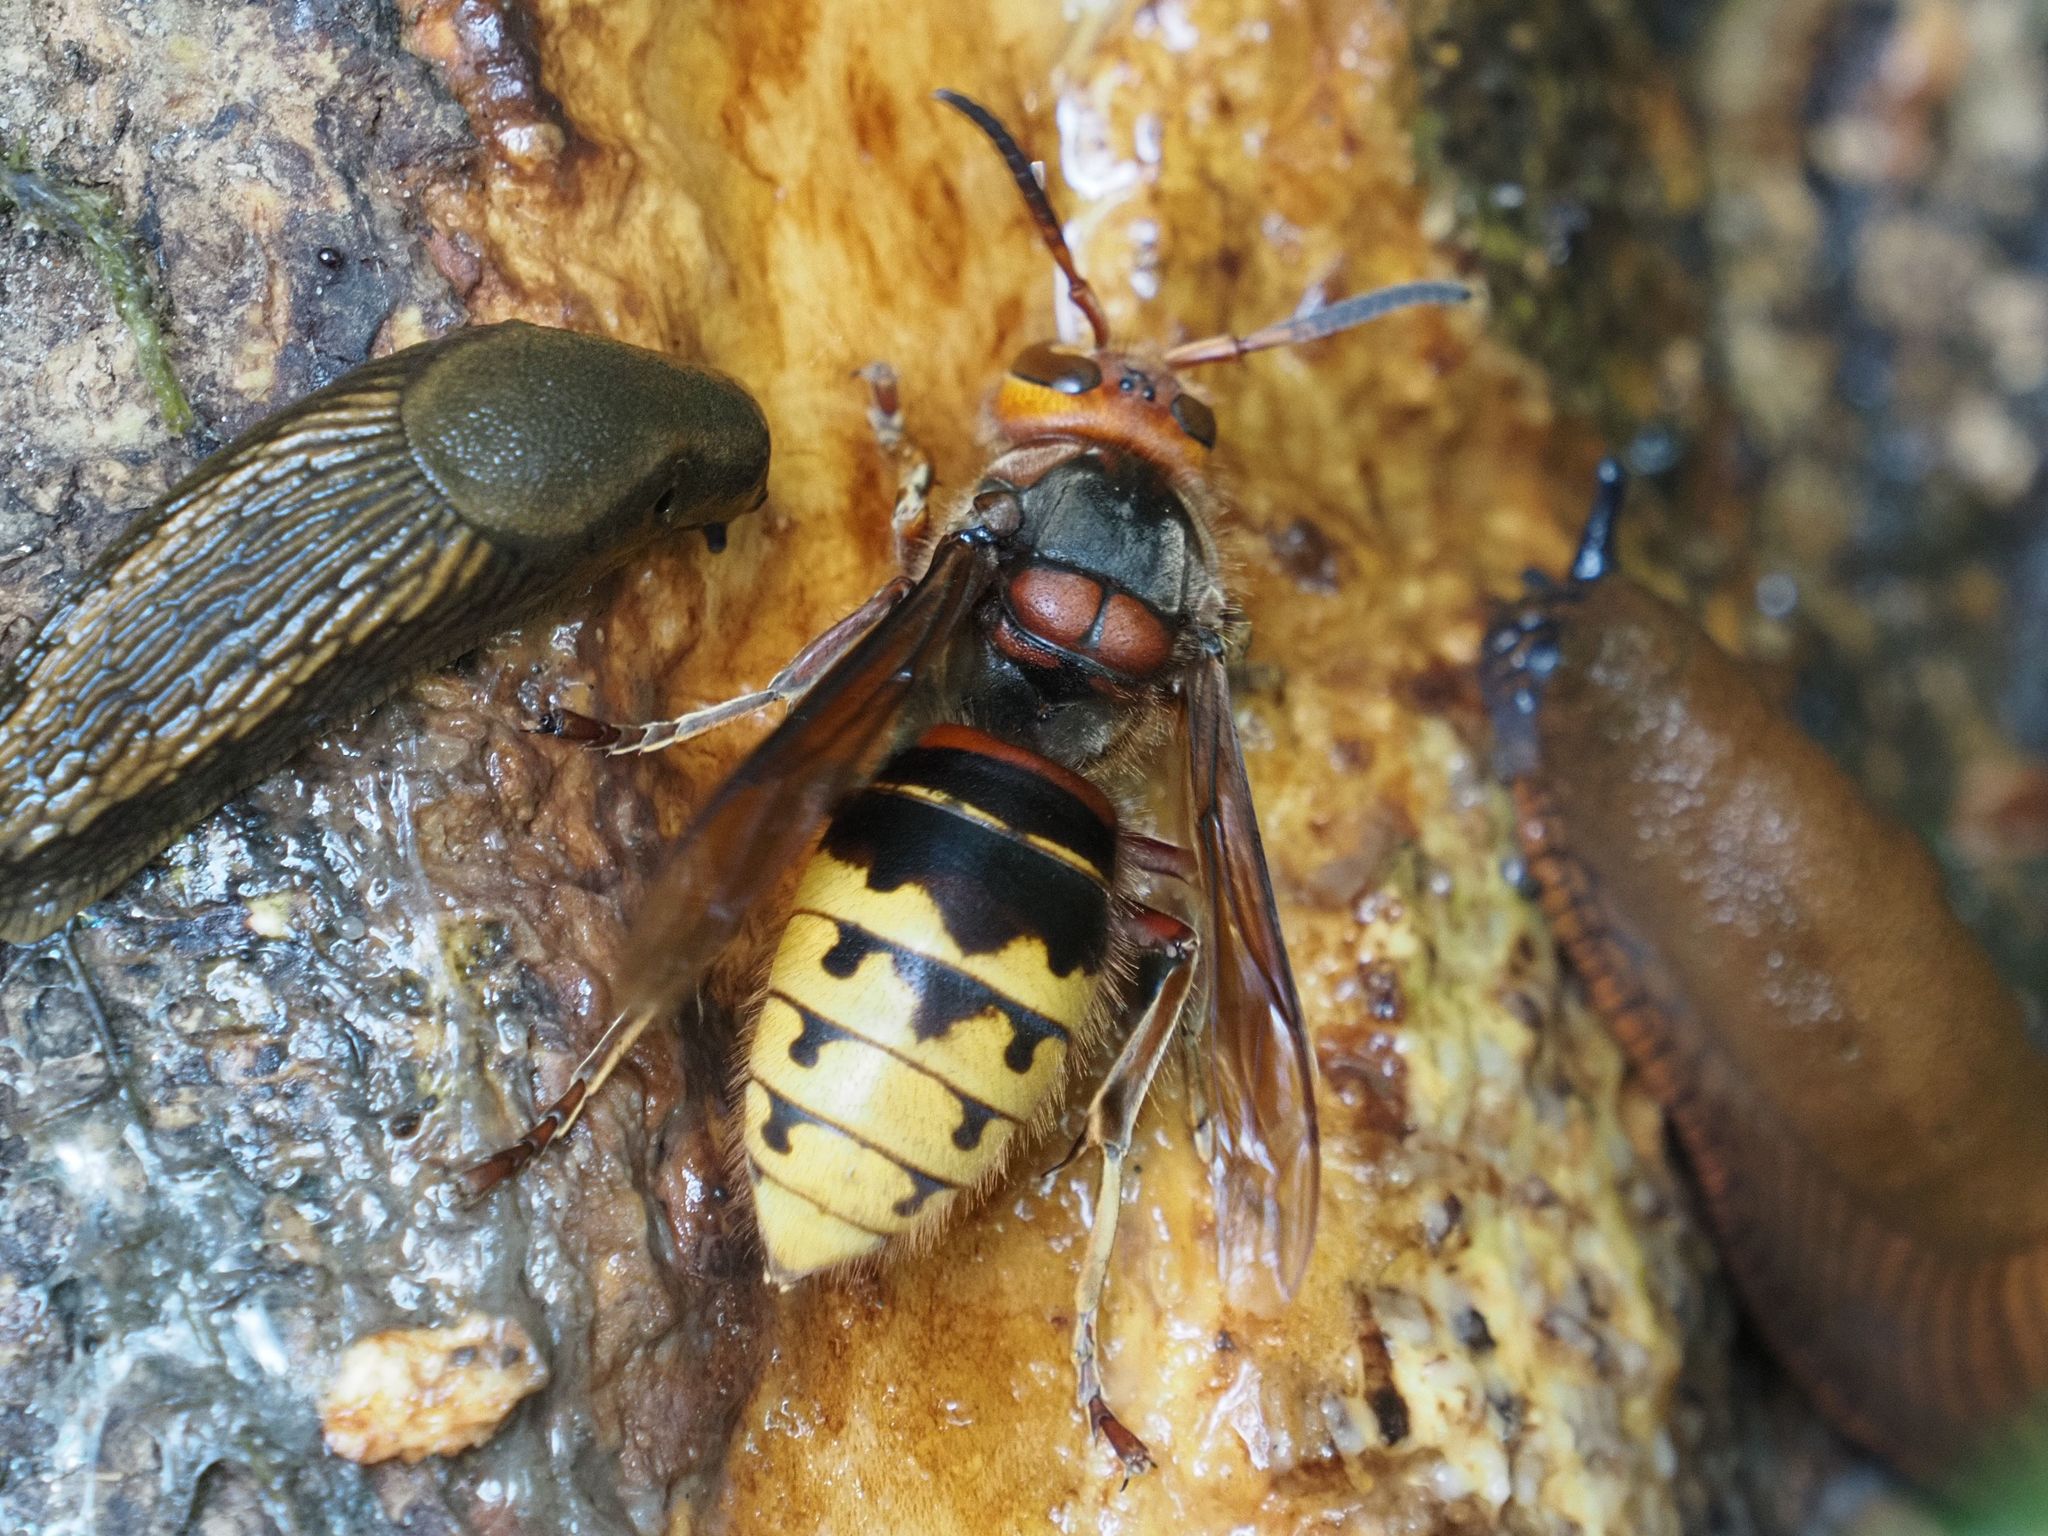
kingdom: Animalia
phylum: Arthropoda
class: Insecta
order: Hymenoptera
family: Vespidae
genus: Vespa
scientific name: Vespa crabro
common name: Hornet
